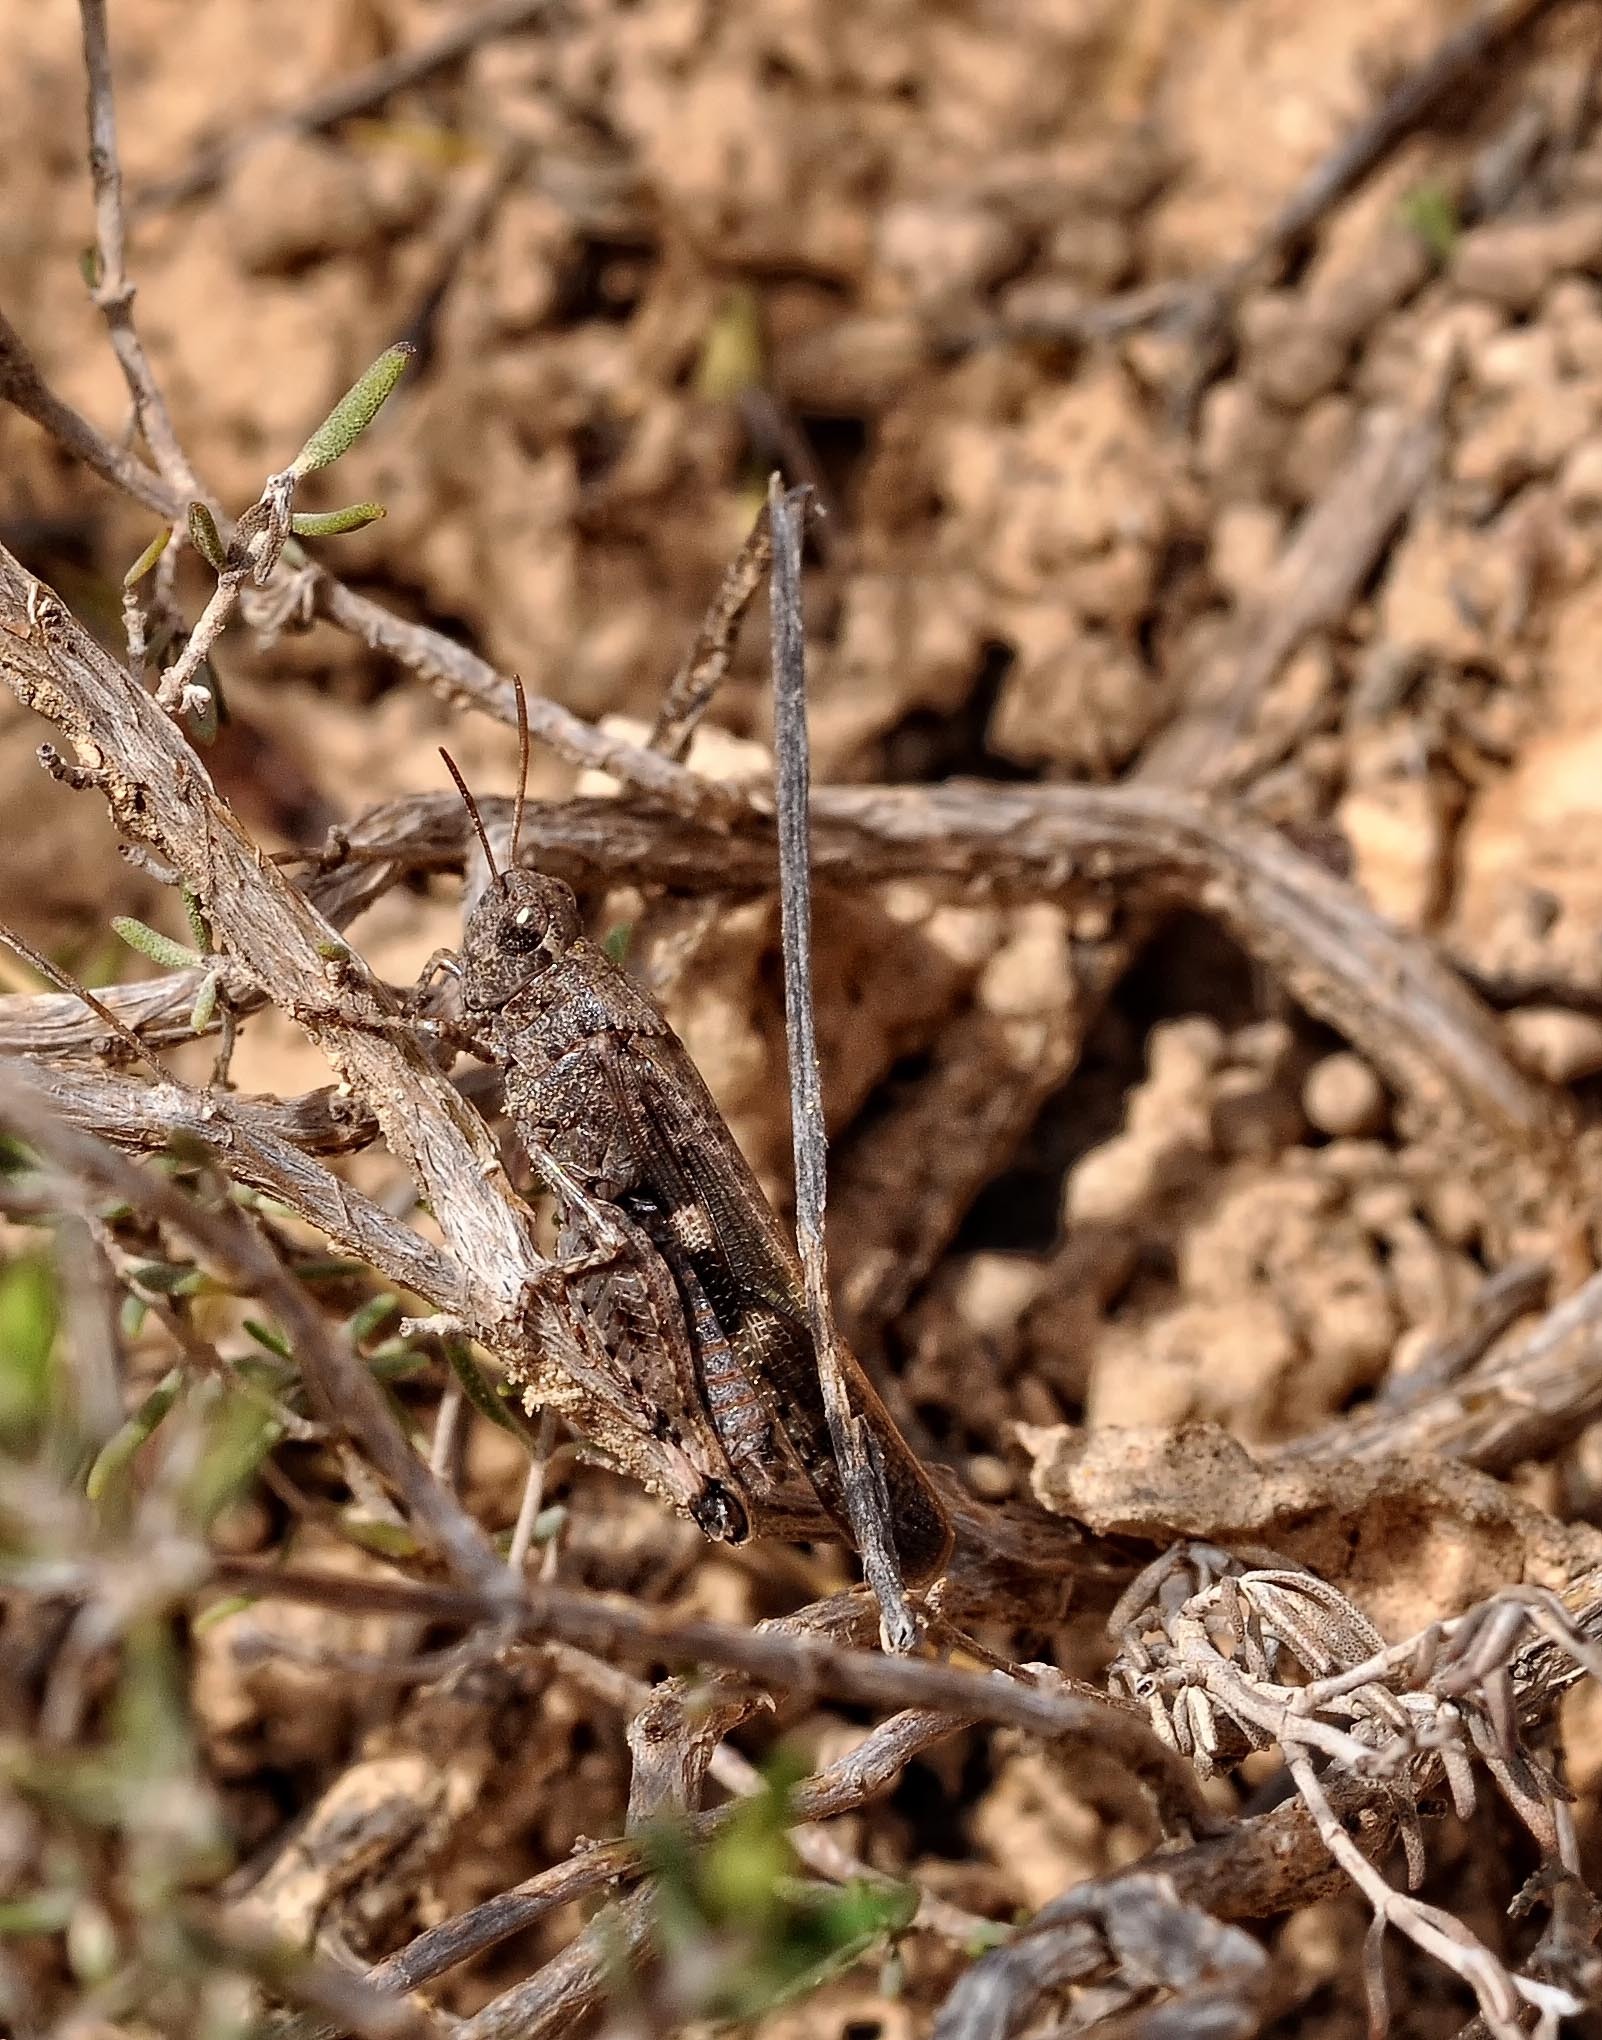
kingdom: Animalia
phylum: Arthropoda
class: Insecta
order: Orthoptera
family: Acrididae
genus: Aiolopus
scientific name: Aiolopus strepens
